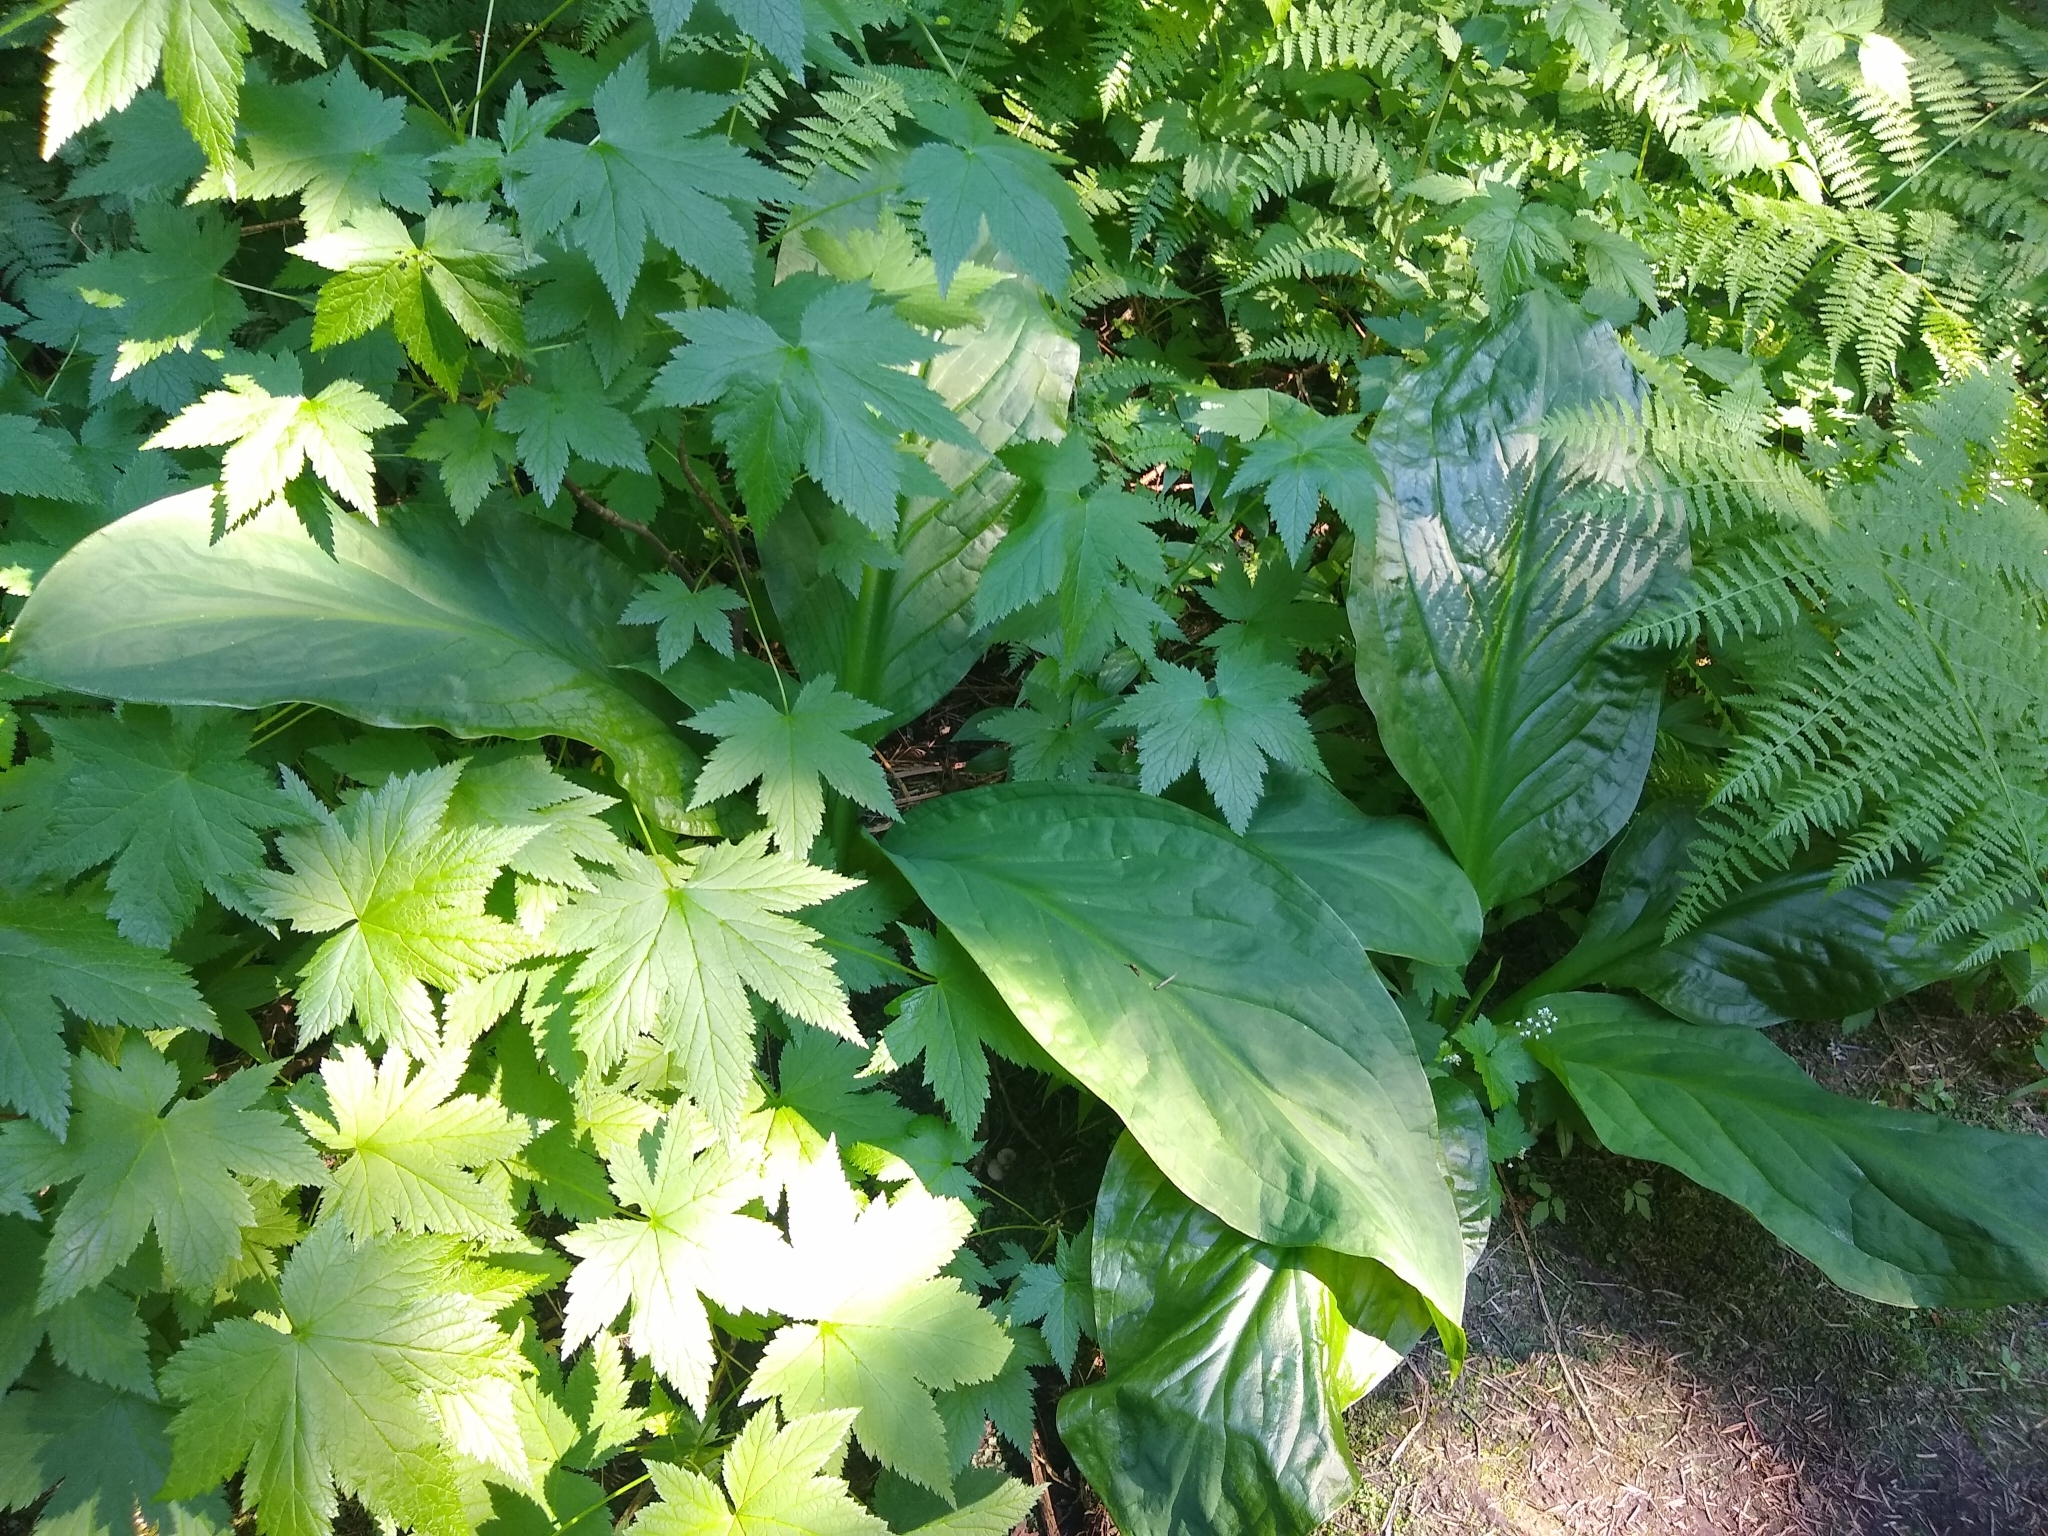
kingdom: Plantae
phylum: Tracheophyta
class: Liliopsida
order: Alismatales
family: Araceae
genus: Lysichiton
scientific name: Lysichiton americanus
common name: American skunk cabbage
